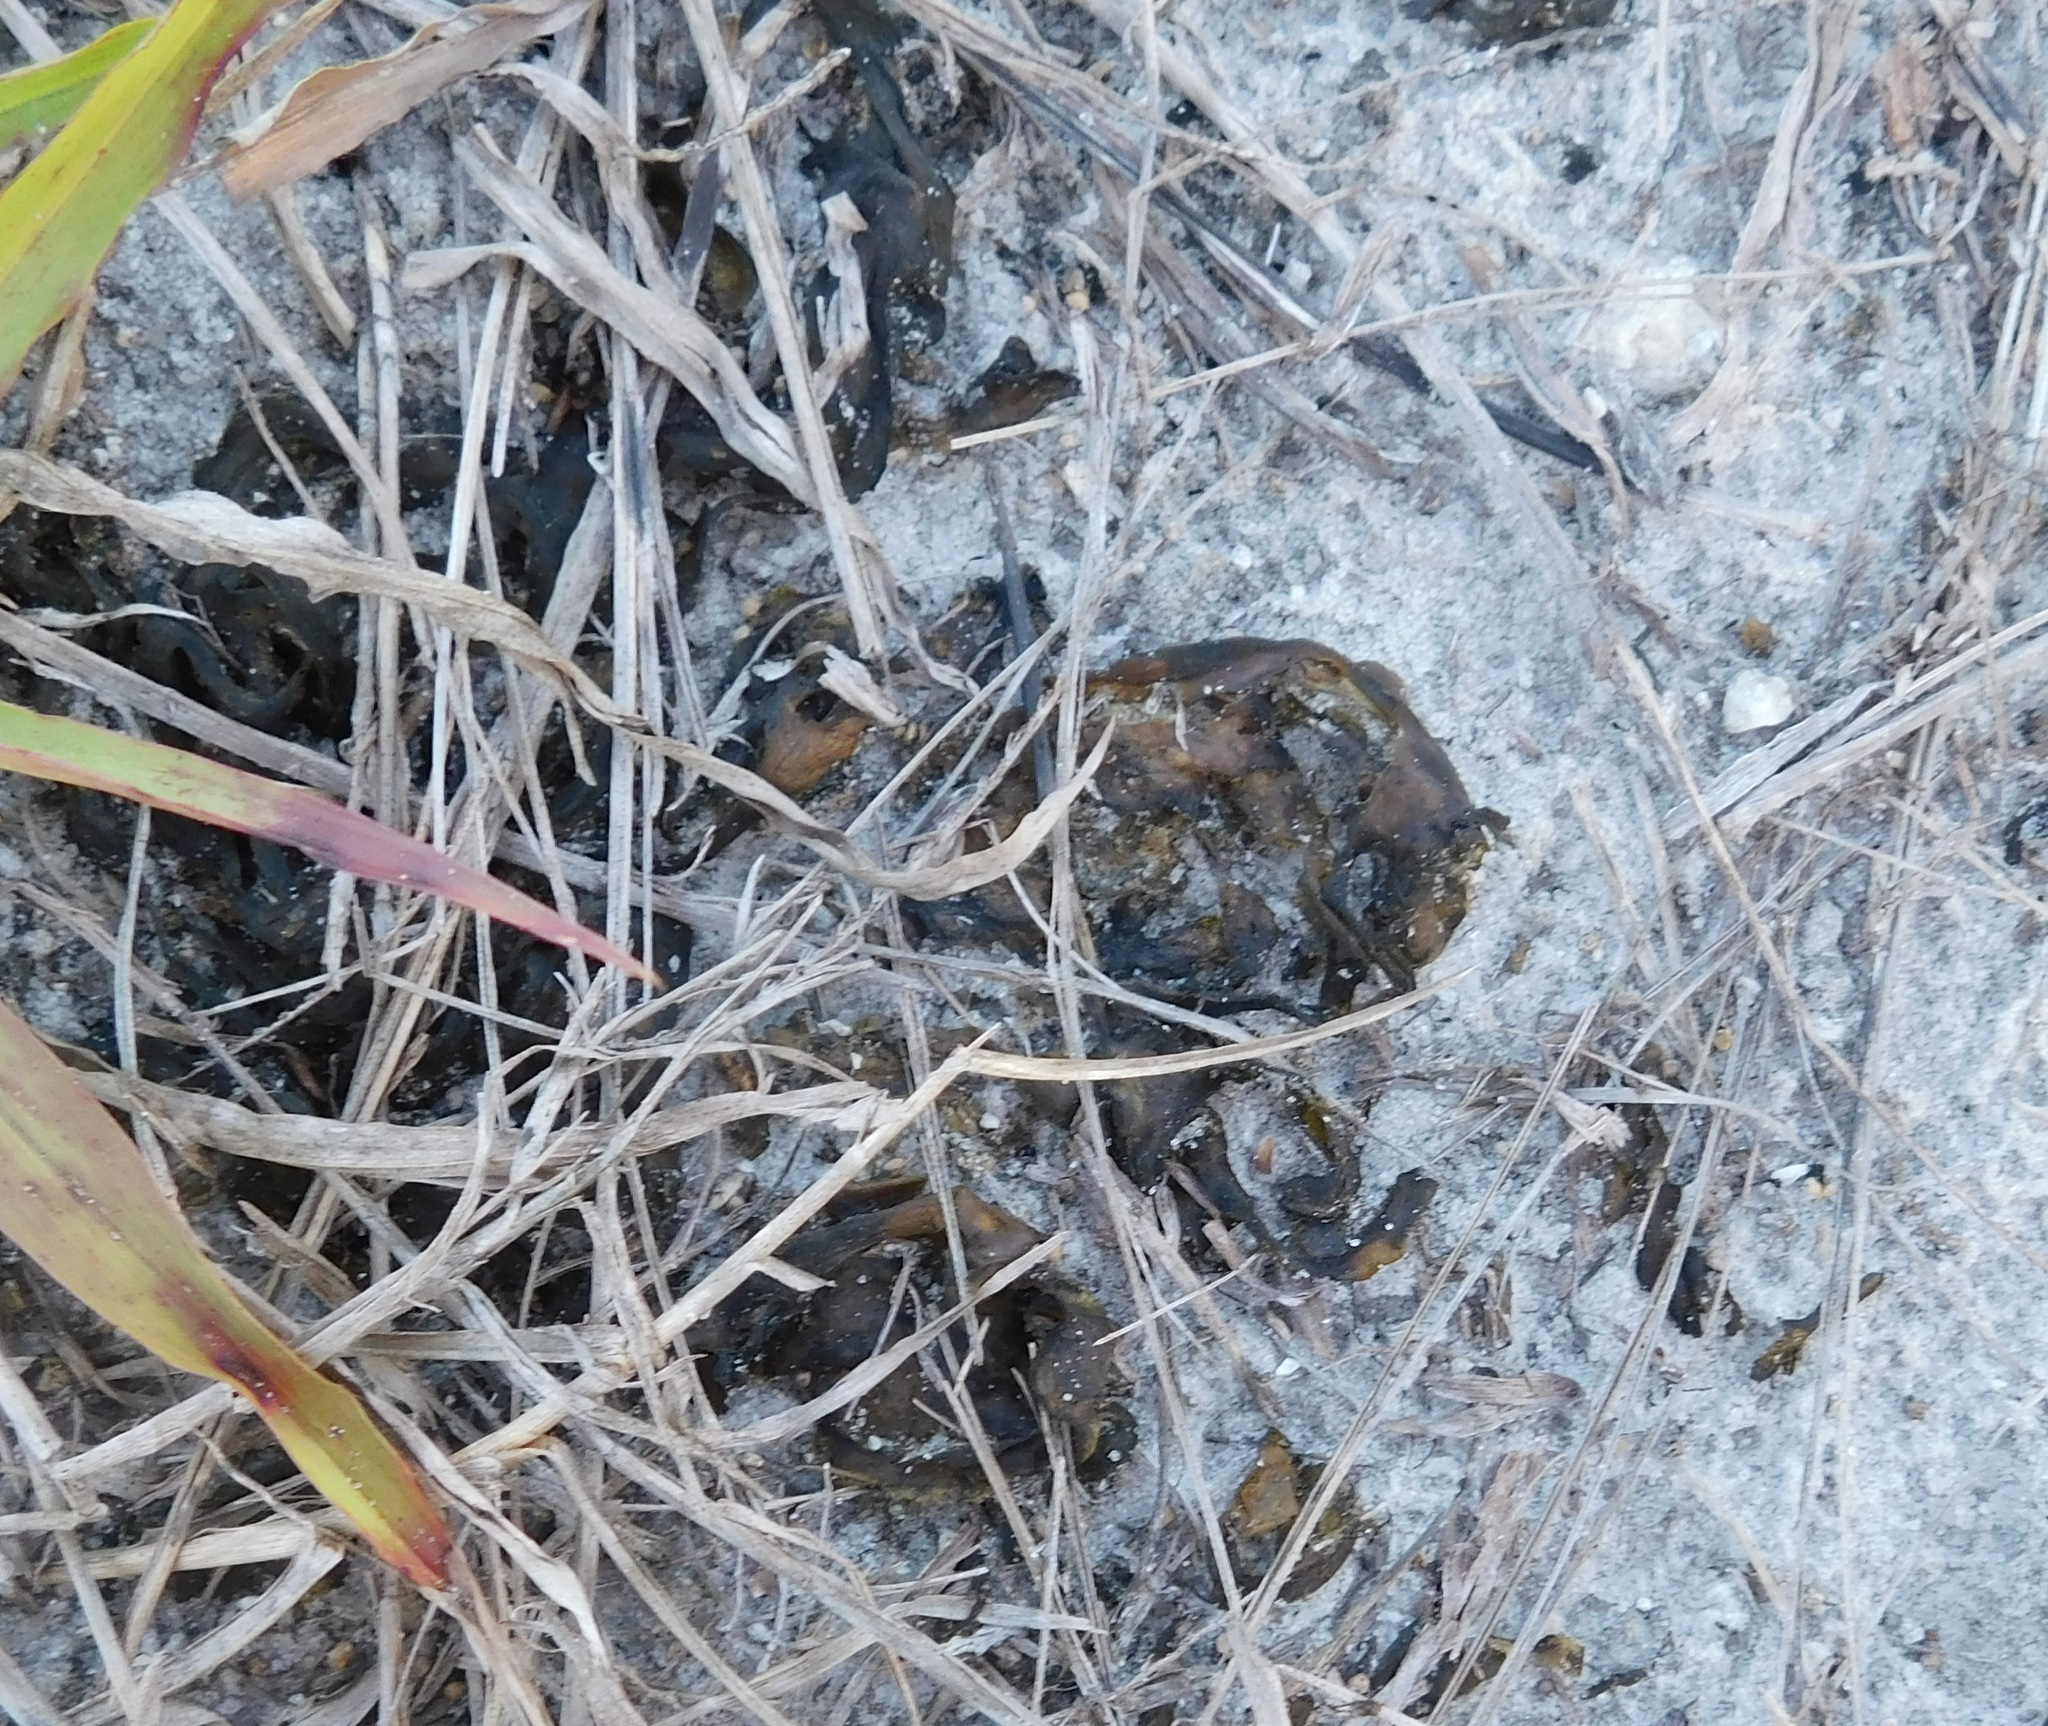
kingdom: Bacteria
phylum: Cyanobacteria
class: Cyanobacteriia
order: Cyanobacteriales
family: Nostocaceae
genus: Nostoc
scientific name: Nostoc commune
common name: Star jelly
